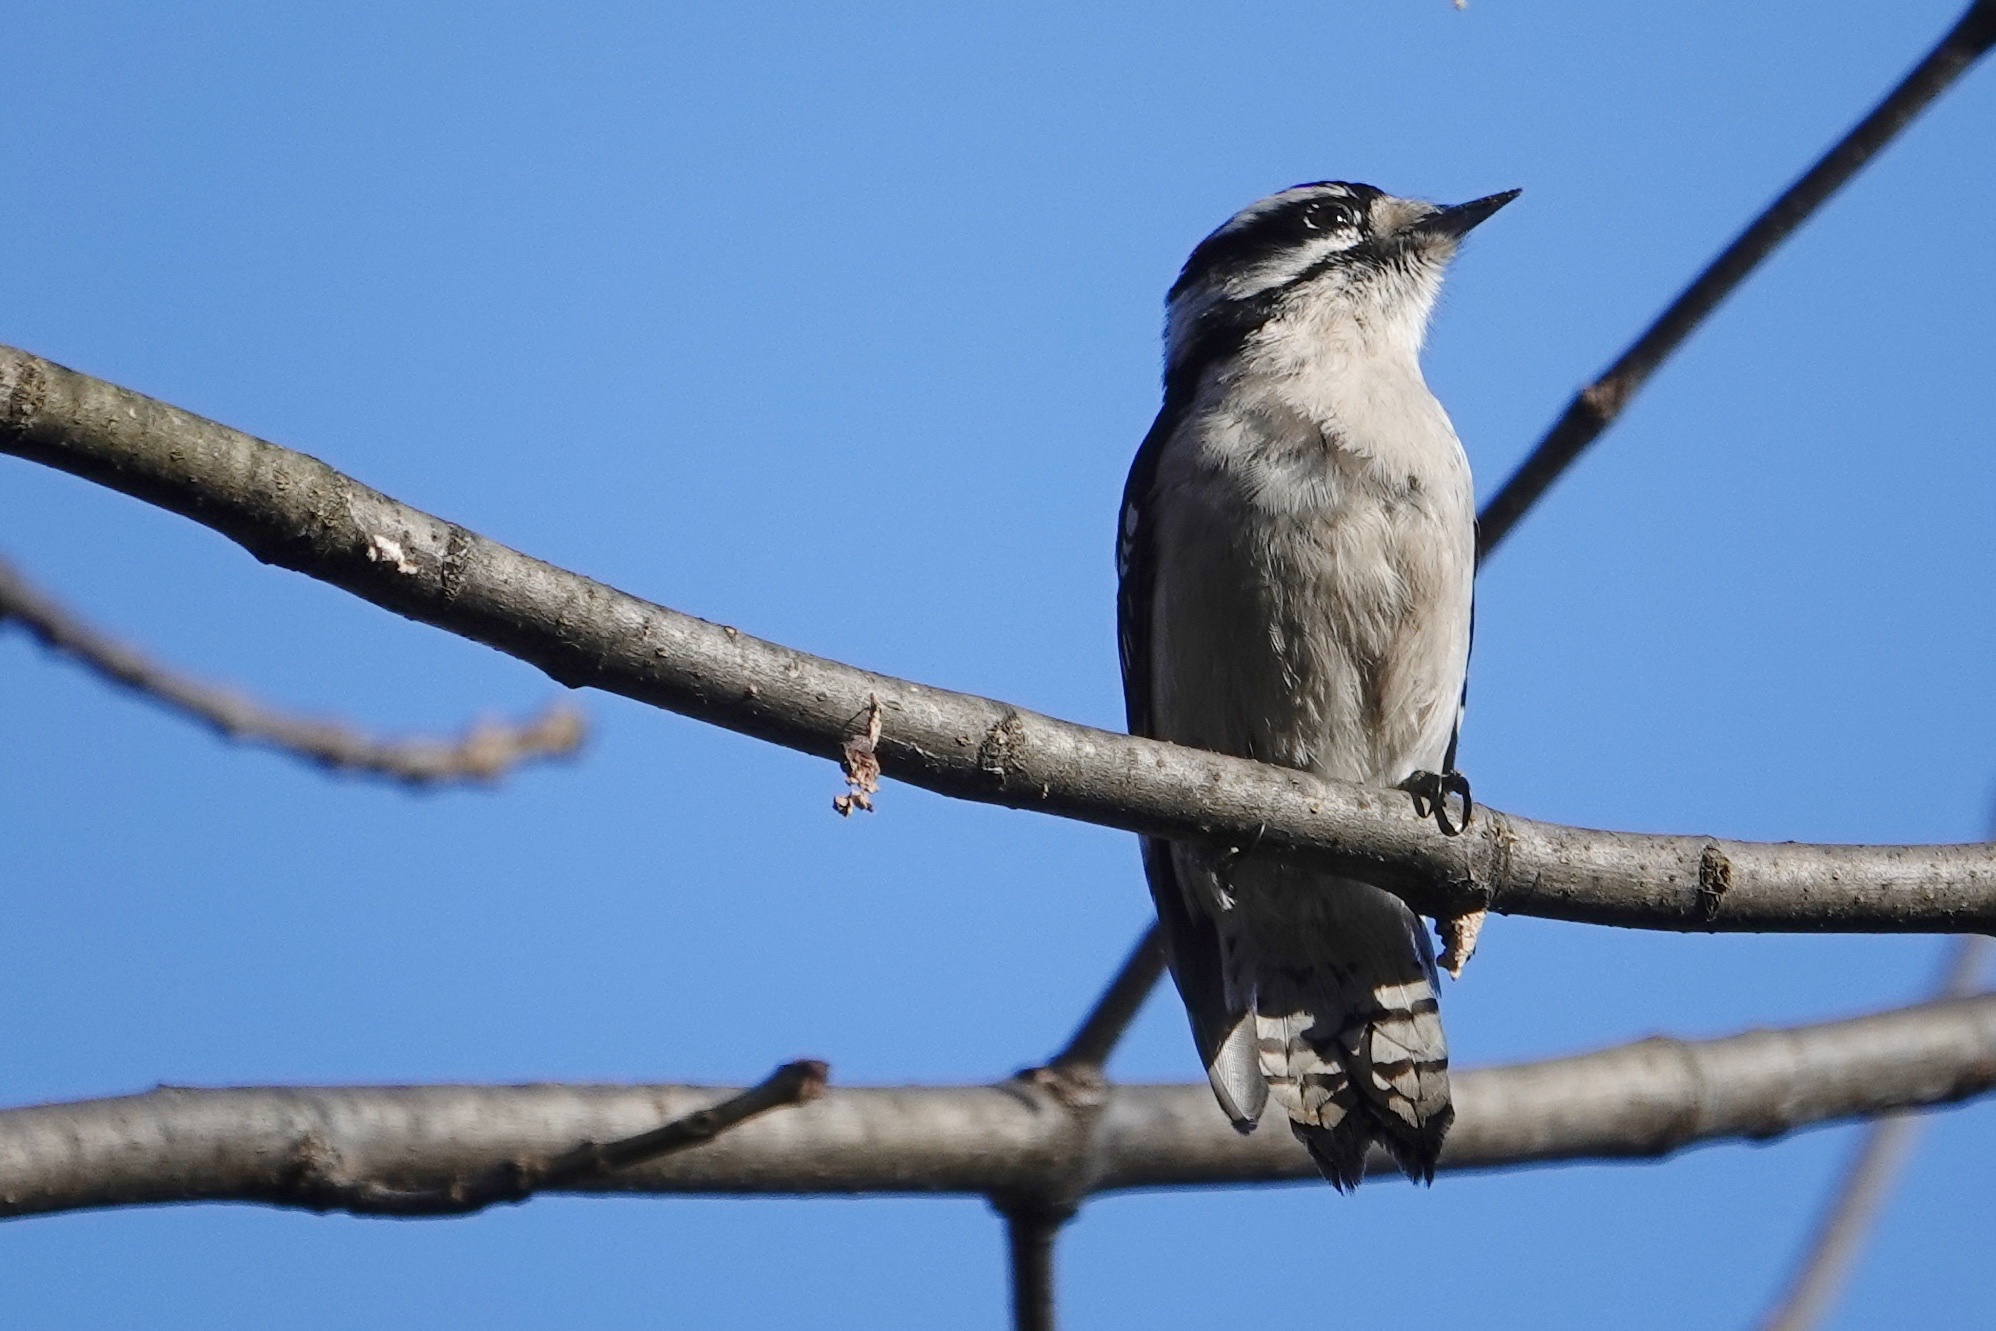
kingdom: Animalia
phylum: Chordata
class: Aves
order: Piciformes
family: Picidae
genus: Dryobates
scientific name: Dryobates pubescens
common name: Downy woodpecker
